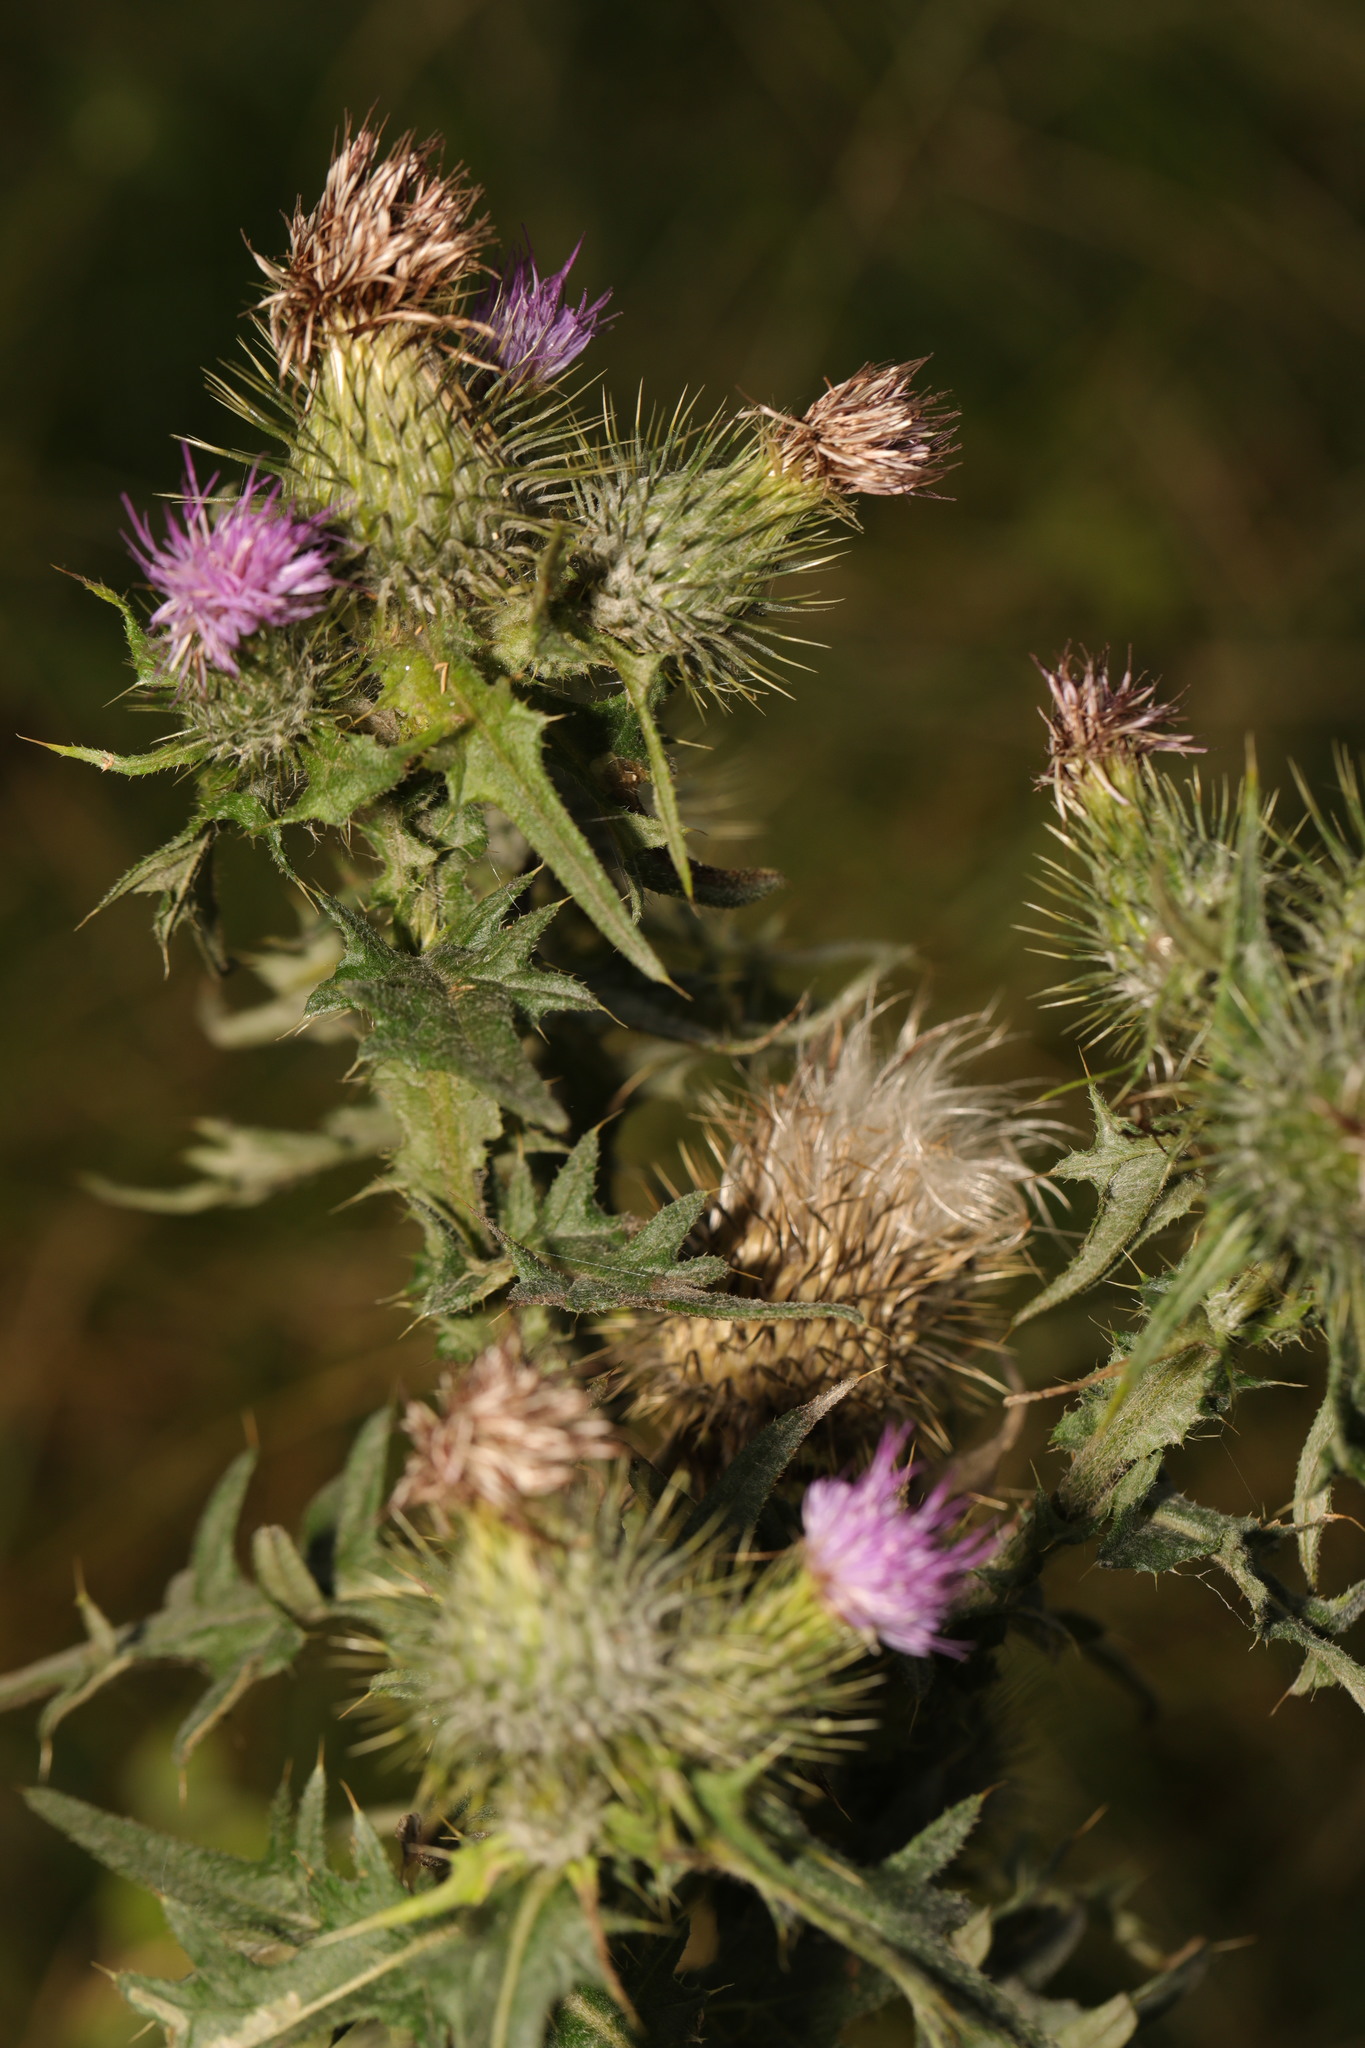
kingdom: Plantae
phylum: Tracheophyta
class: Magnoliopsida
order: Asterales
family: Asteraceae
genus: Cirsium
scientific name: Cirsium vulgare
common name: Bull thistle
